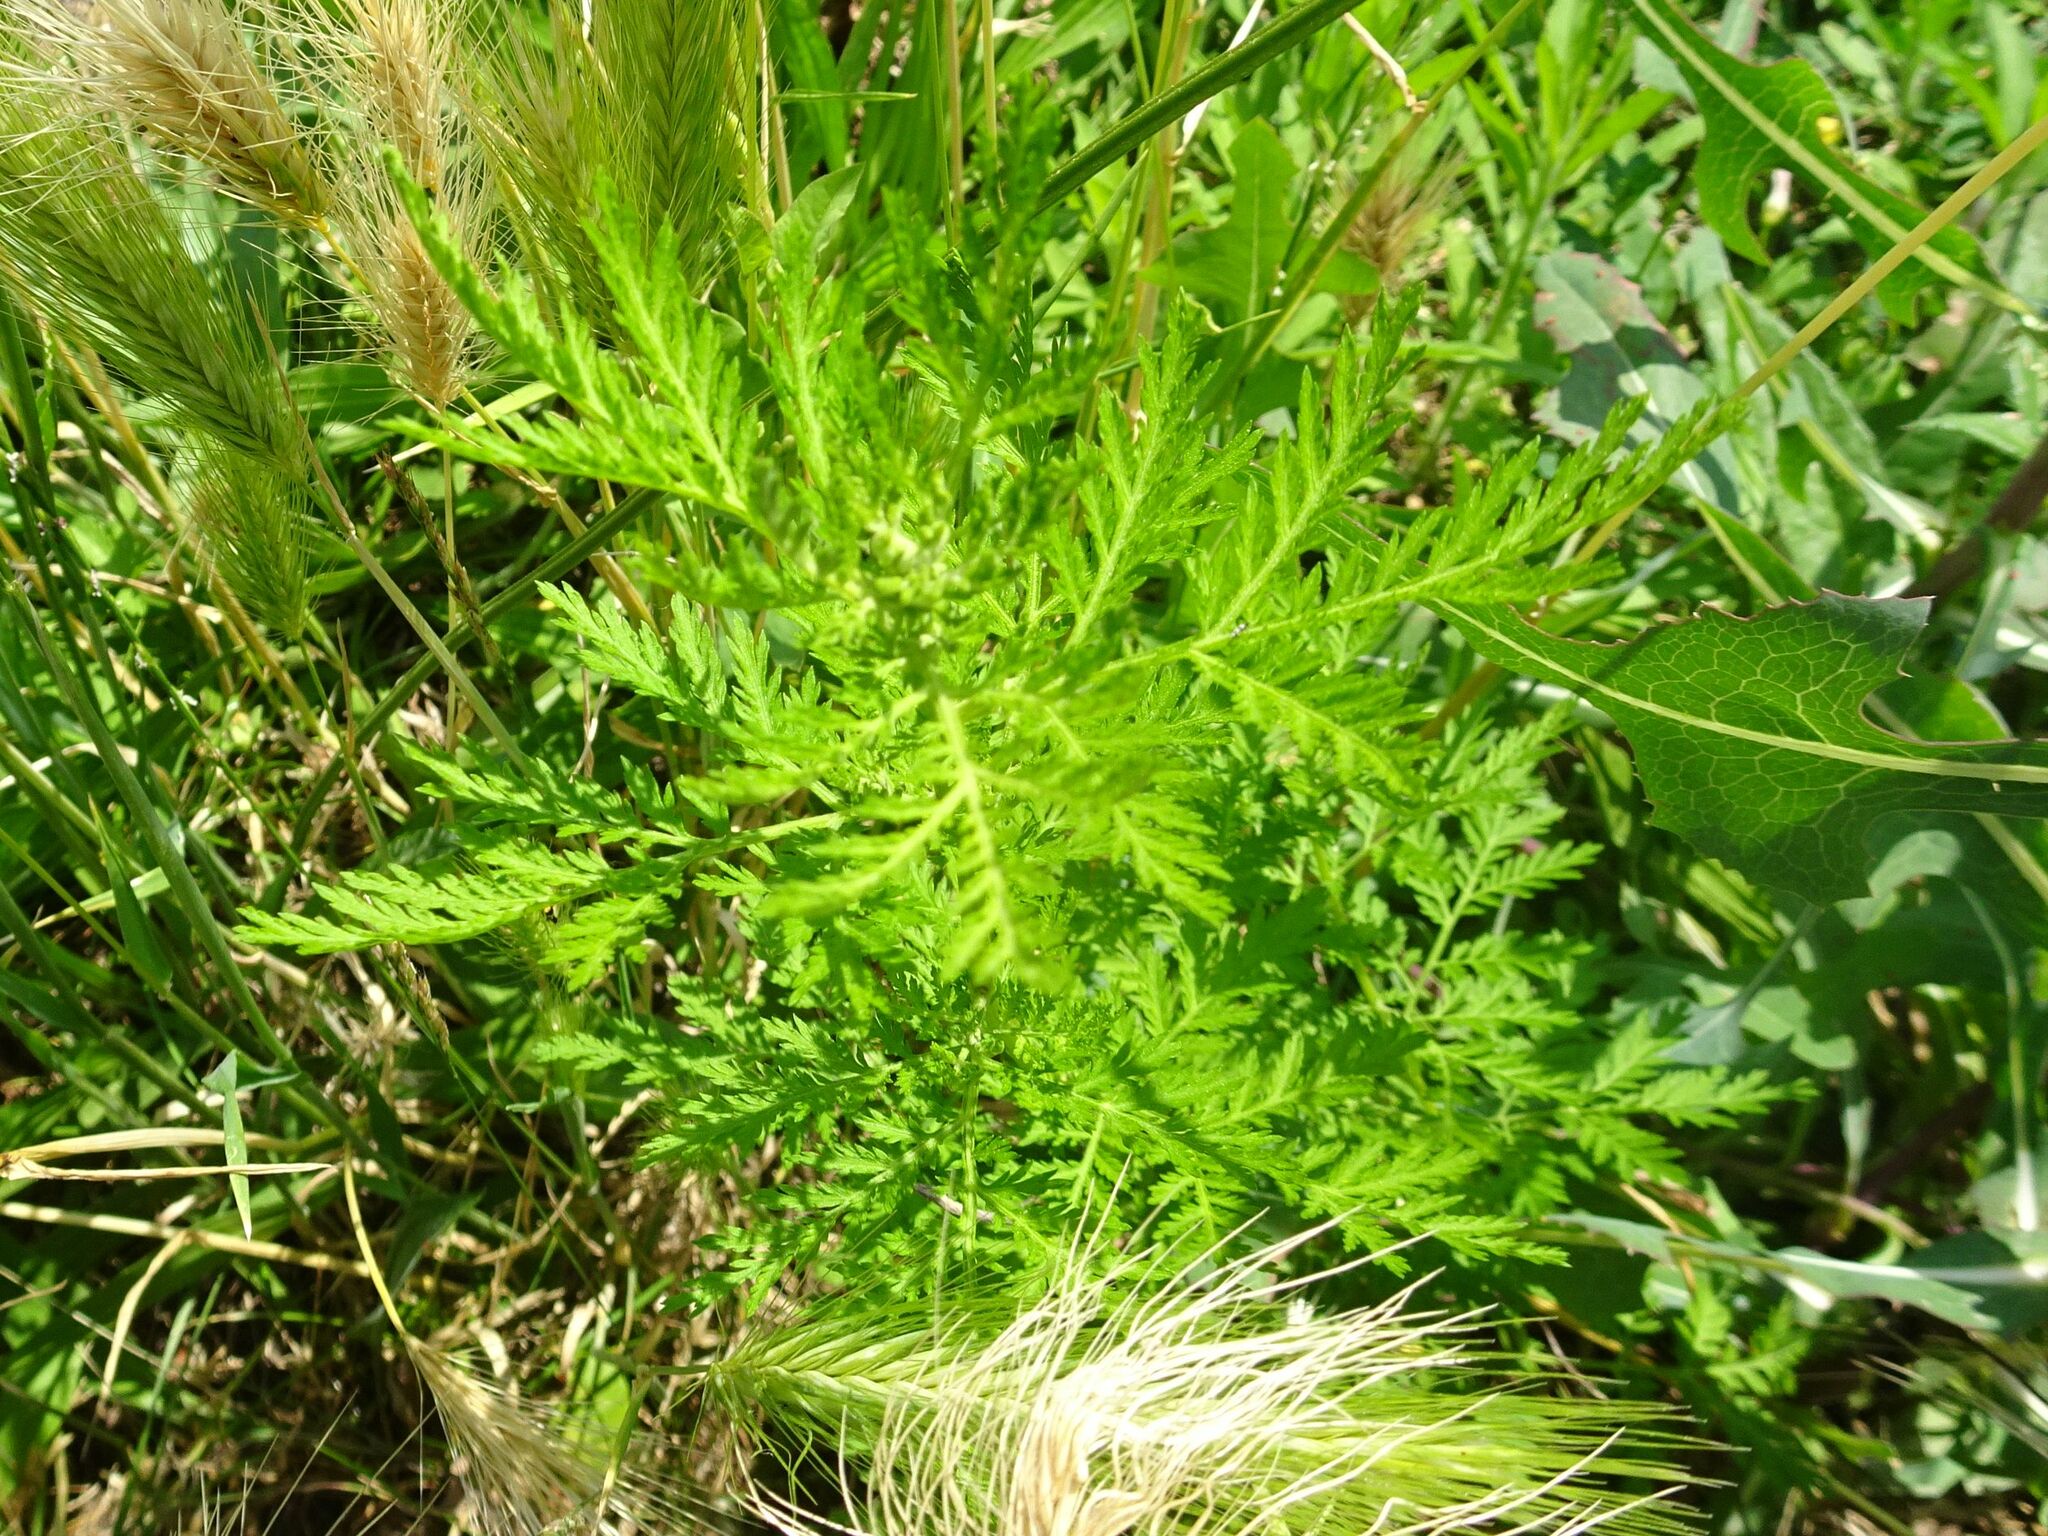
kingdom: Plantae
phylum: Tracheophyta
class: Magnoliopsida
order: Asterales
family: Asteraceae
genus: Artemisia
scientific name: Artemisia annua
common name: Sweet sagewort
